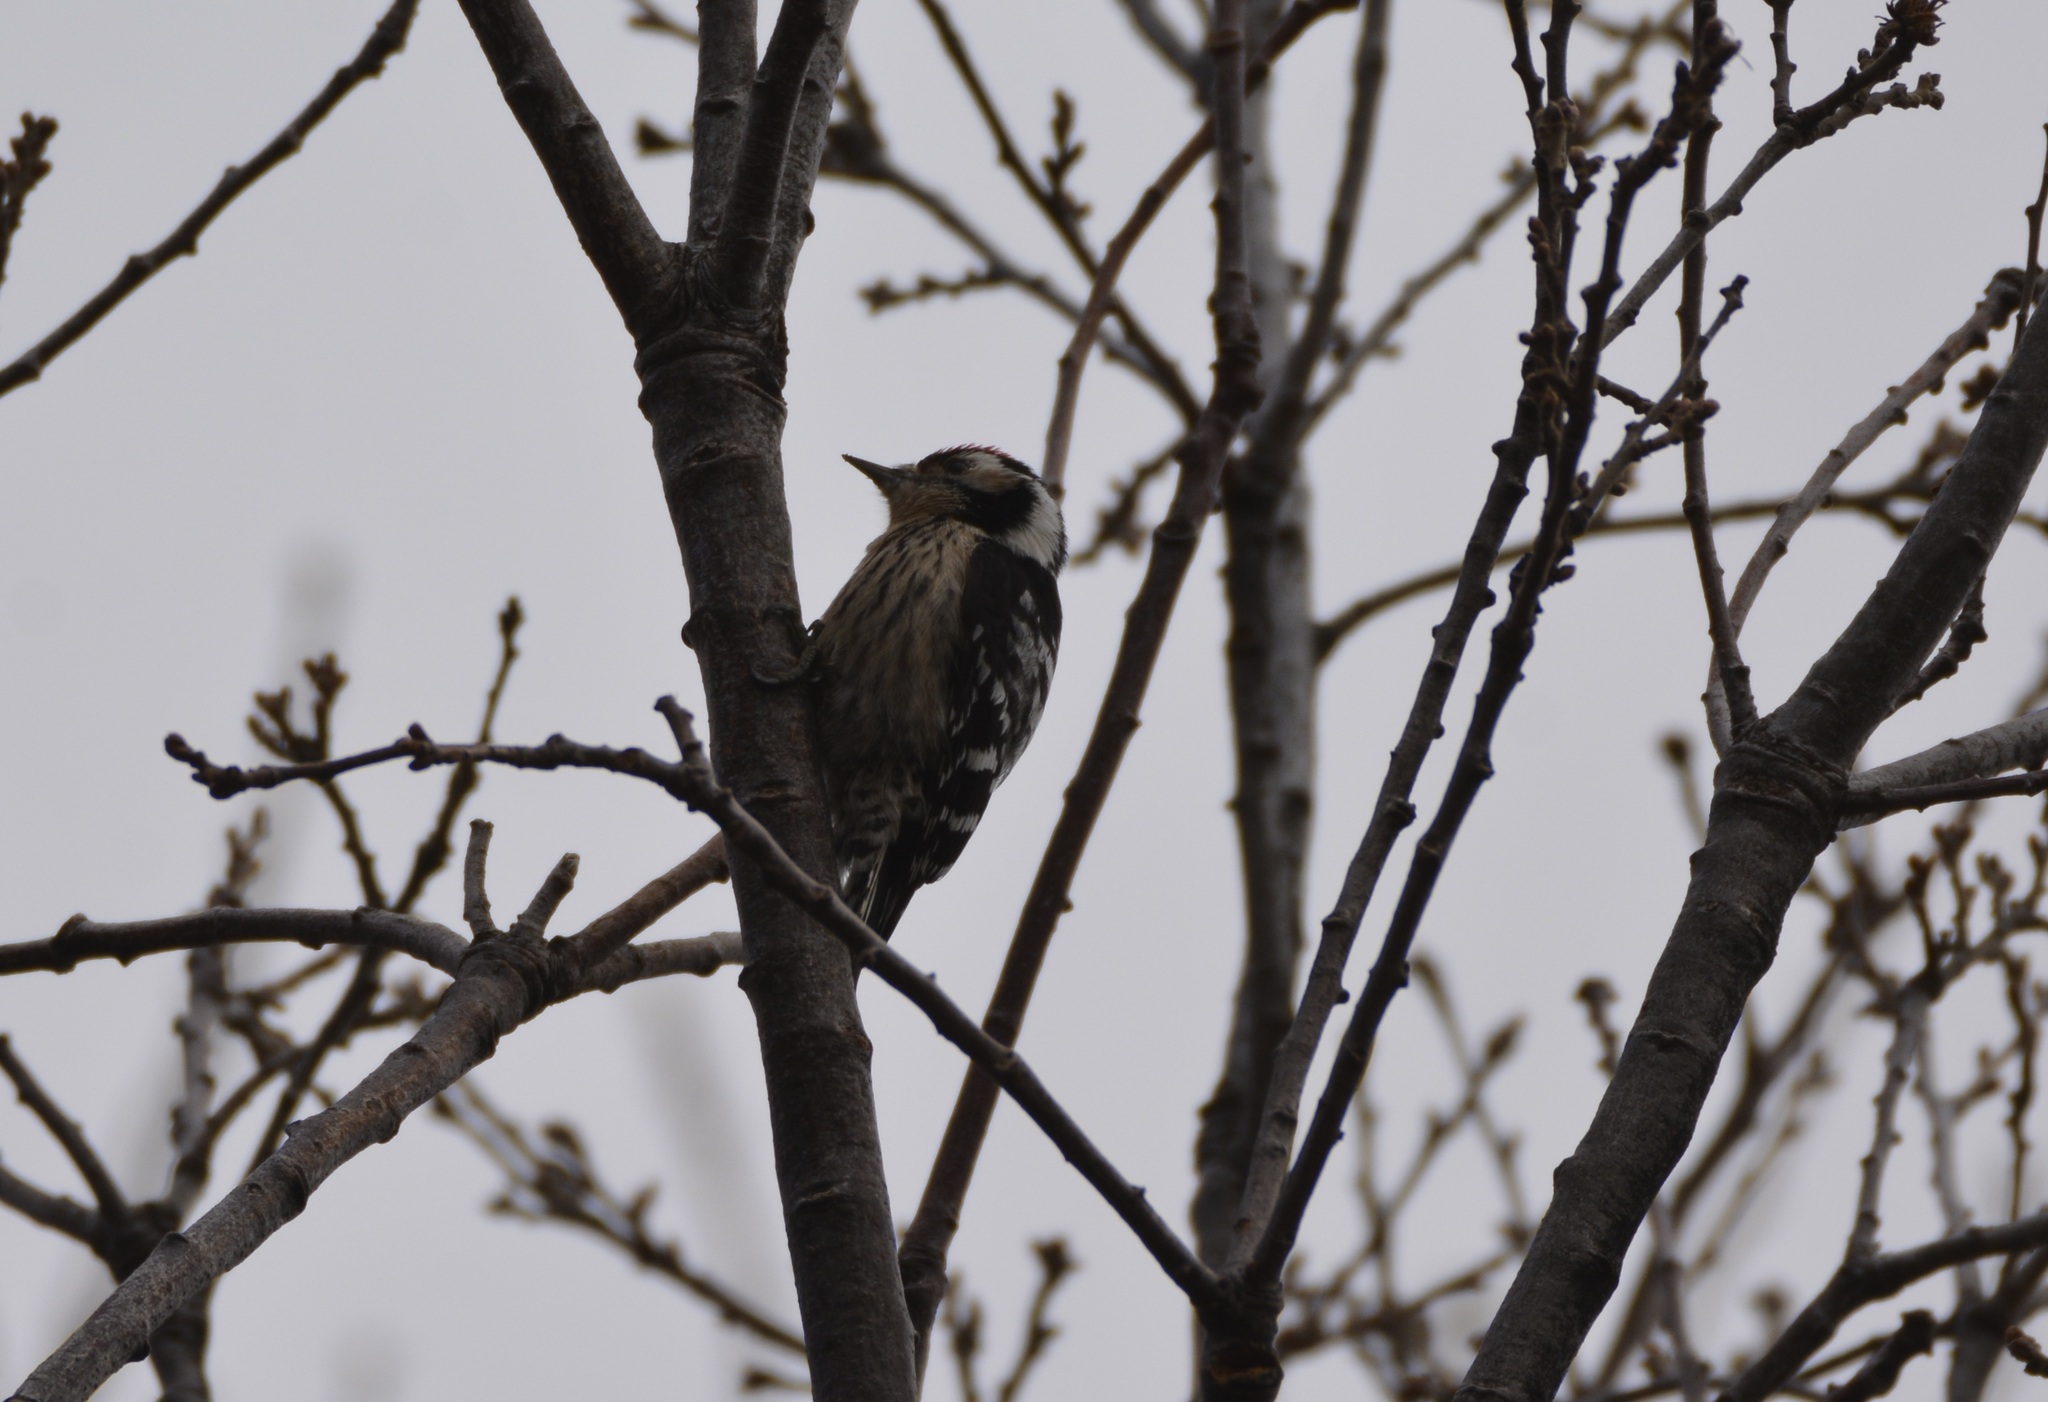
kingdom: Animalia
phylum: Chordata
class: Aves
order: Piciformes
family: Picidae
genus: Dryobates
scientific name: Dryobates minor
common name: Lesser spotted woodpecker
